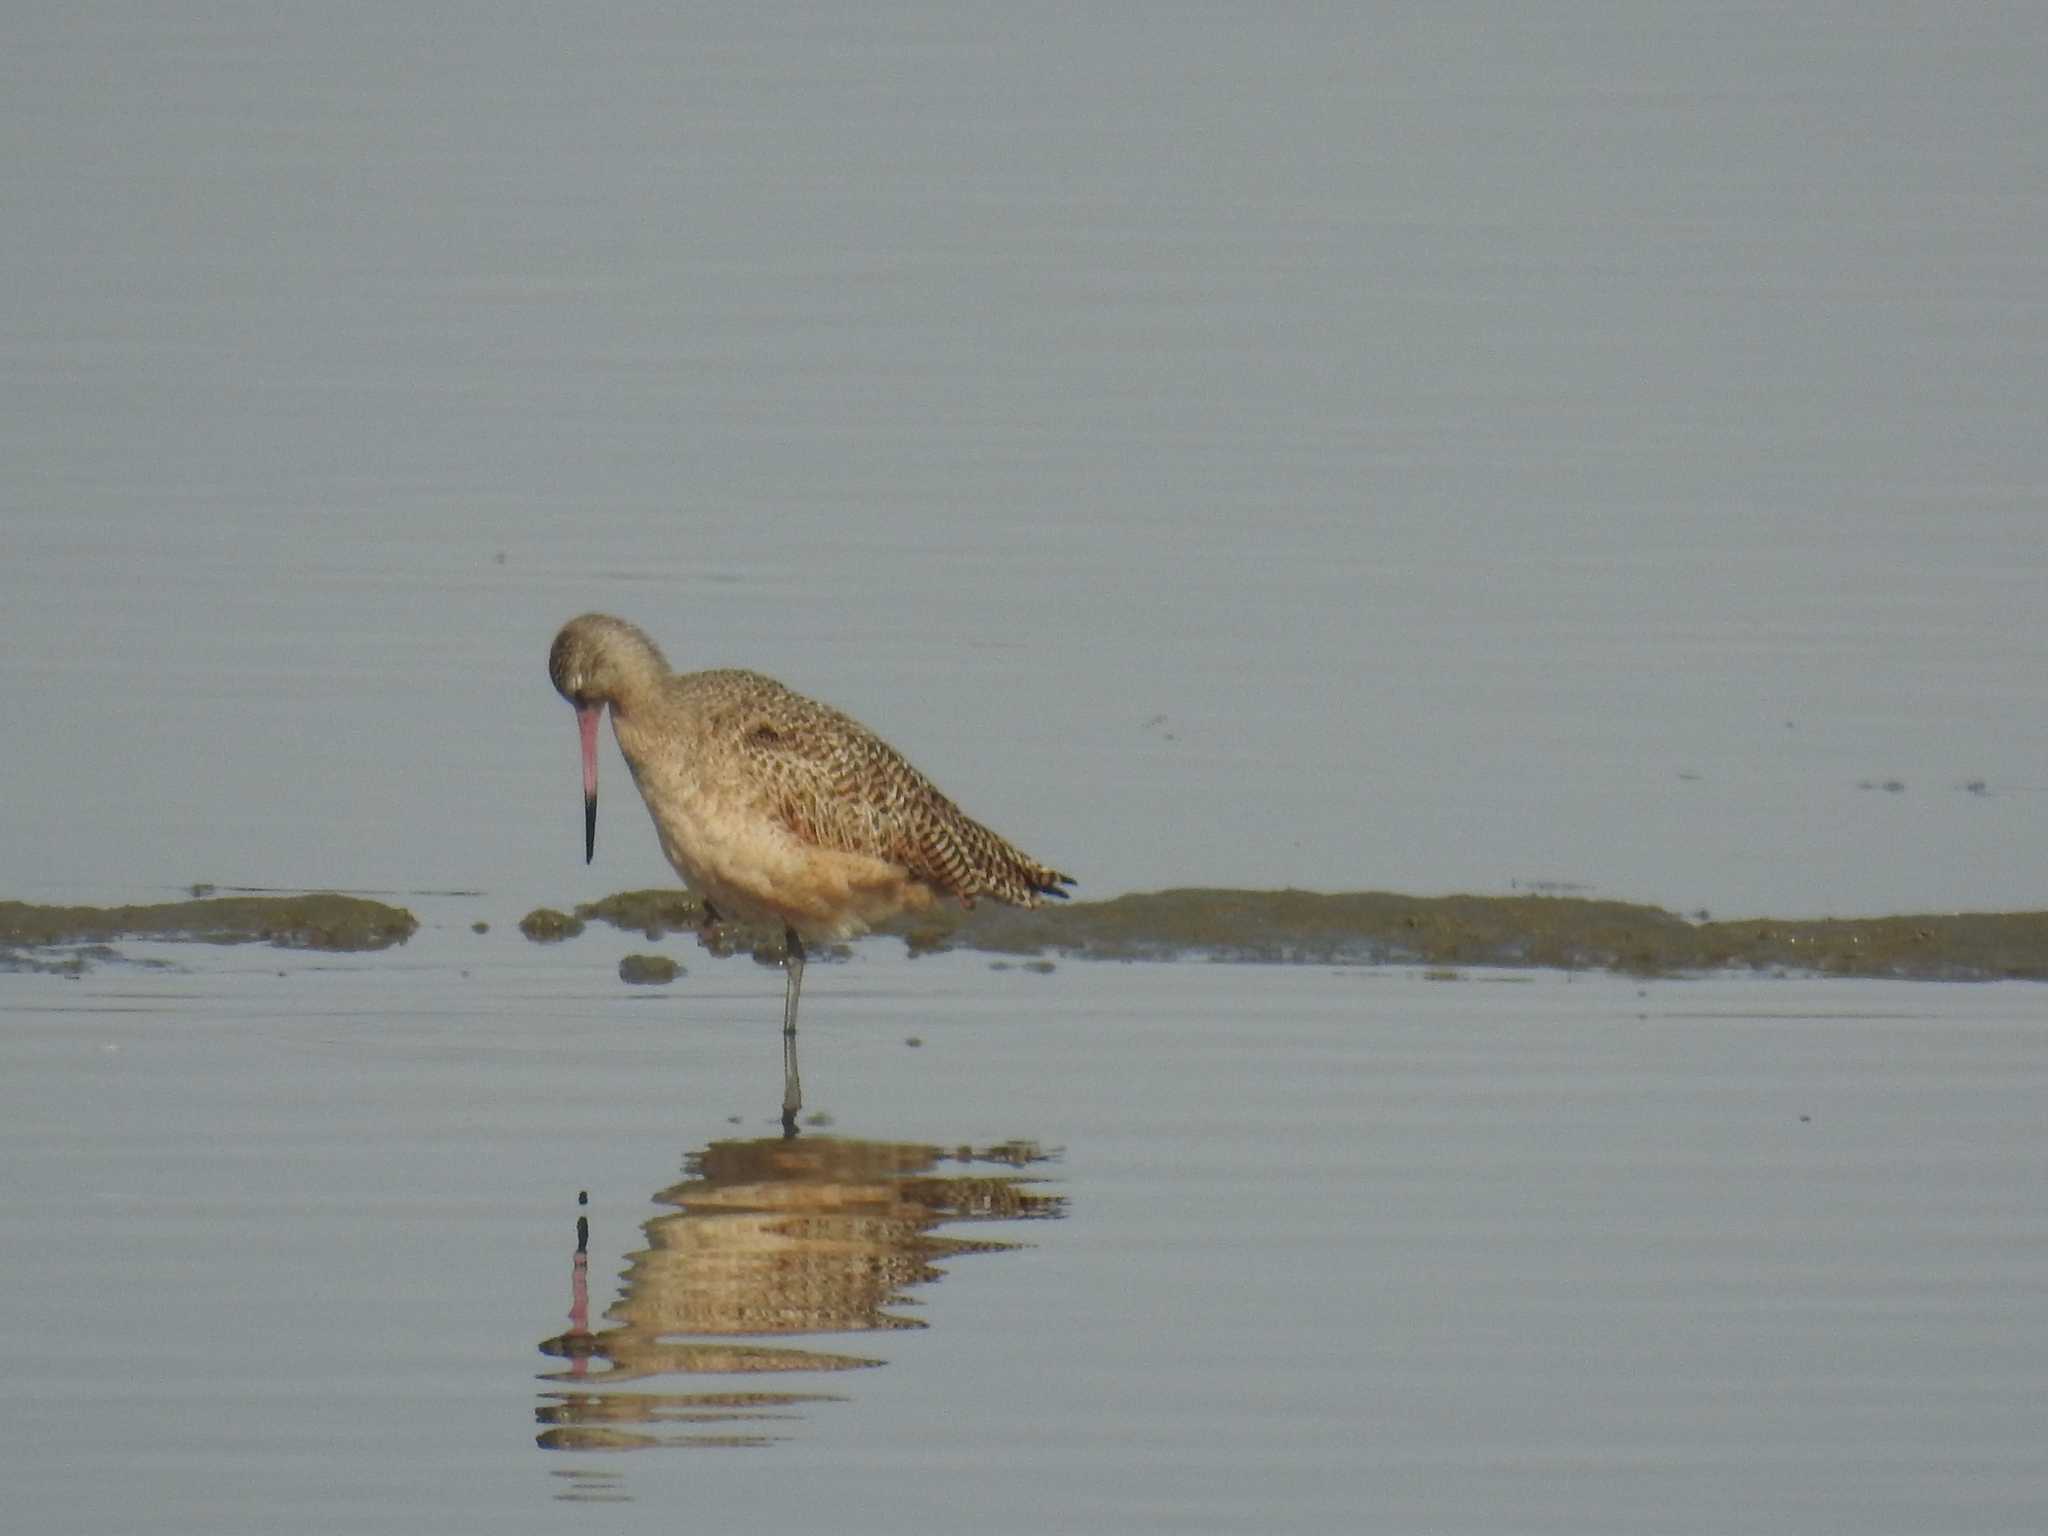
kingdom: Animalia
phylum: Chordata
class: Aves
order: Charadriiformes
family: Scolopacidae
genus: Limosa
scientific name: Limosa fedoa
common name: Marbled godwit
